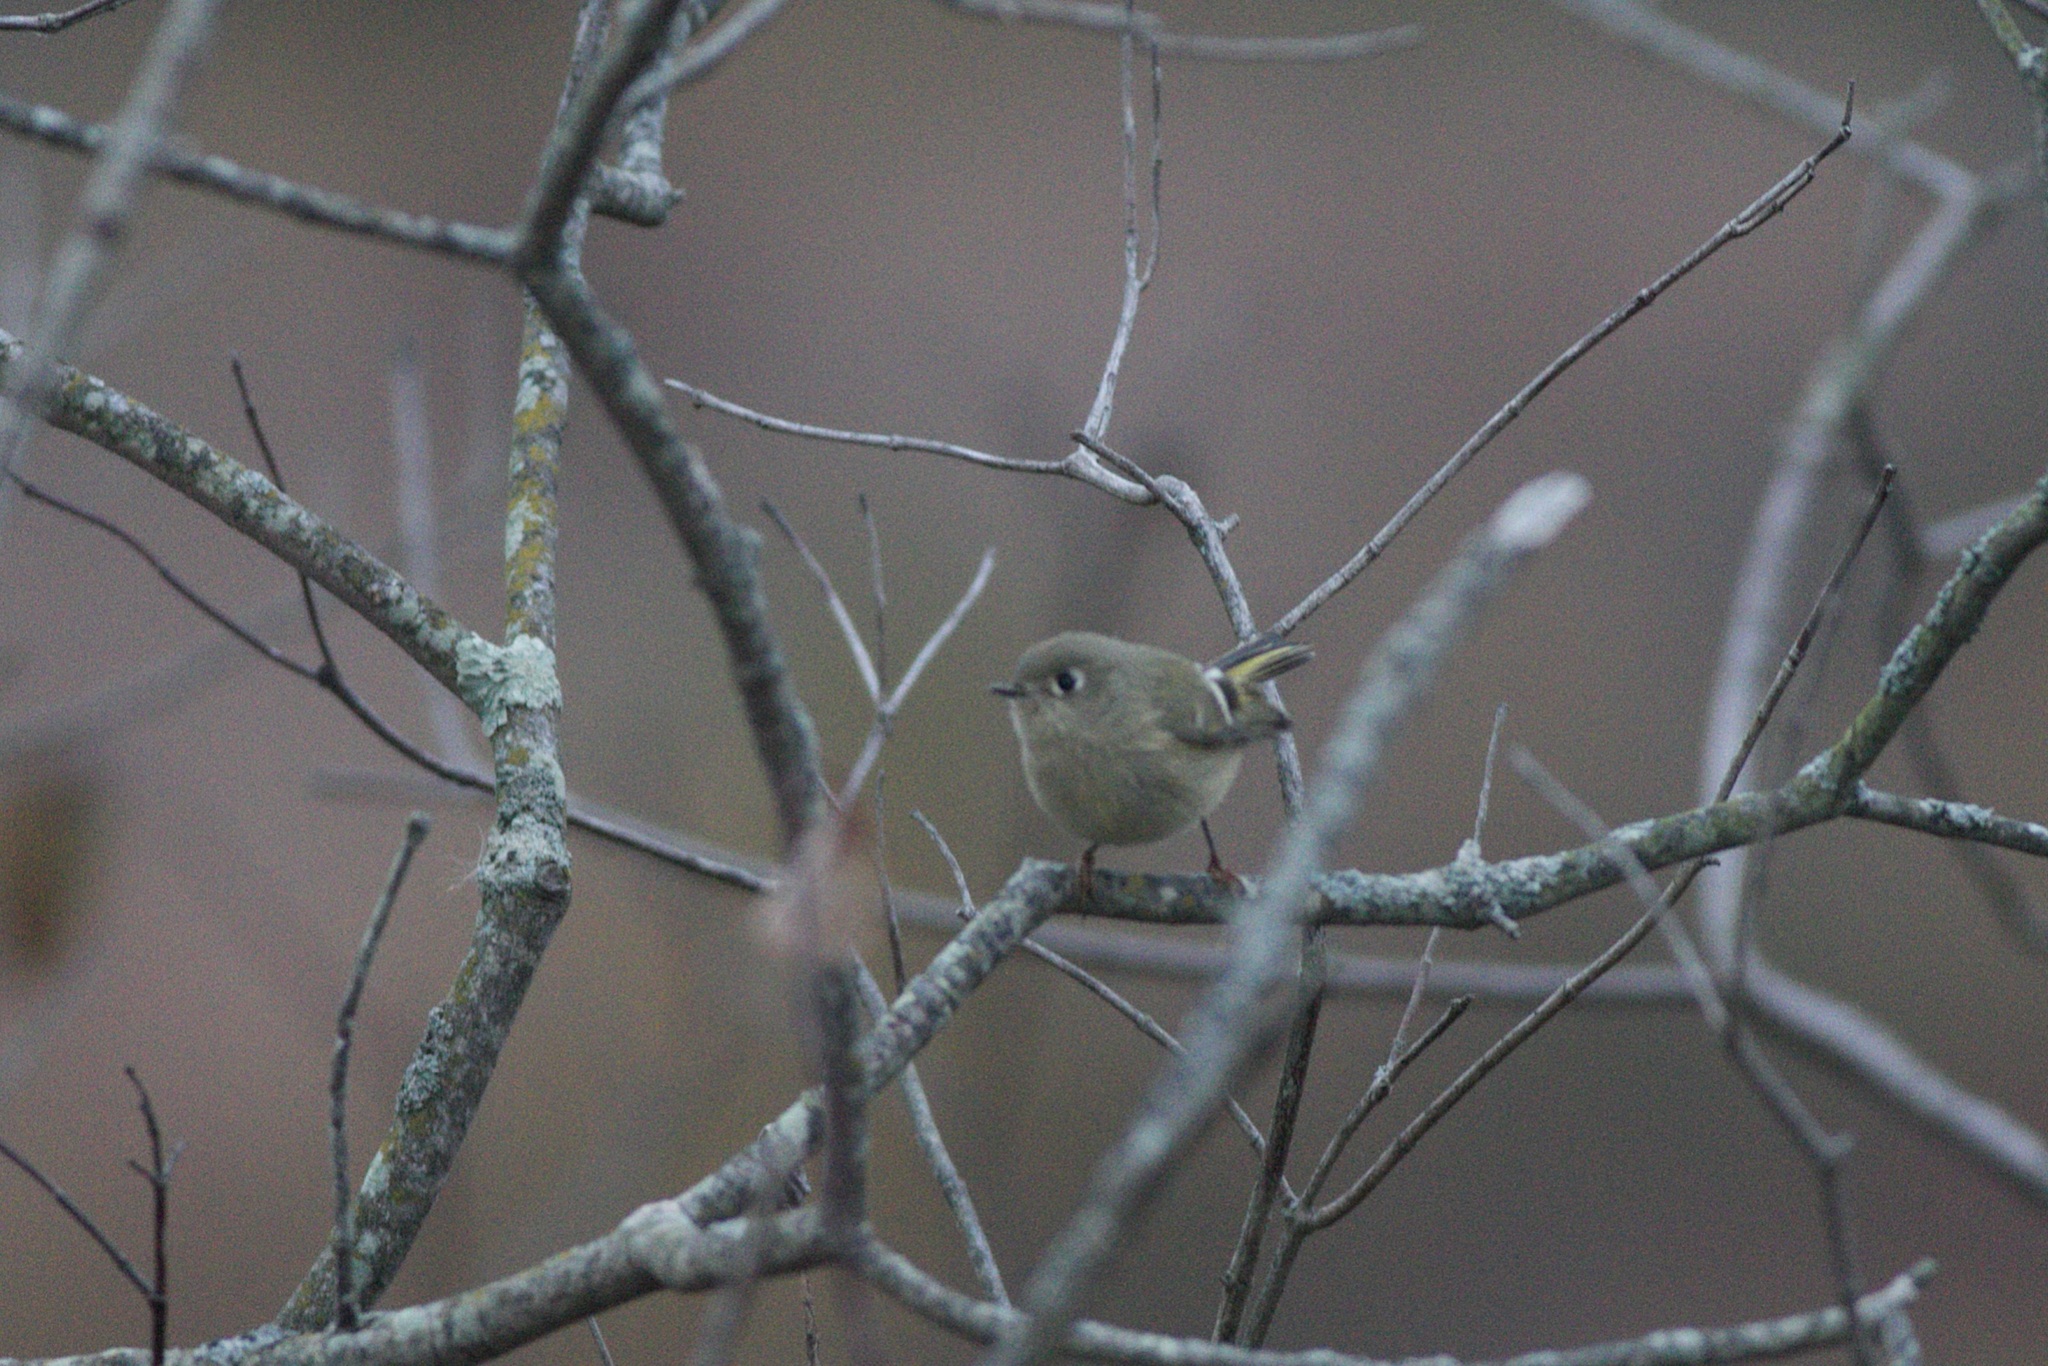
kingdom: Animalia
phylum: Chordata
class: Aves
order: Passeriformes
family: Regulidae
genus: Regulus
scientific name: Regulus calendula
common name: Ruby-crowned kinglet
